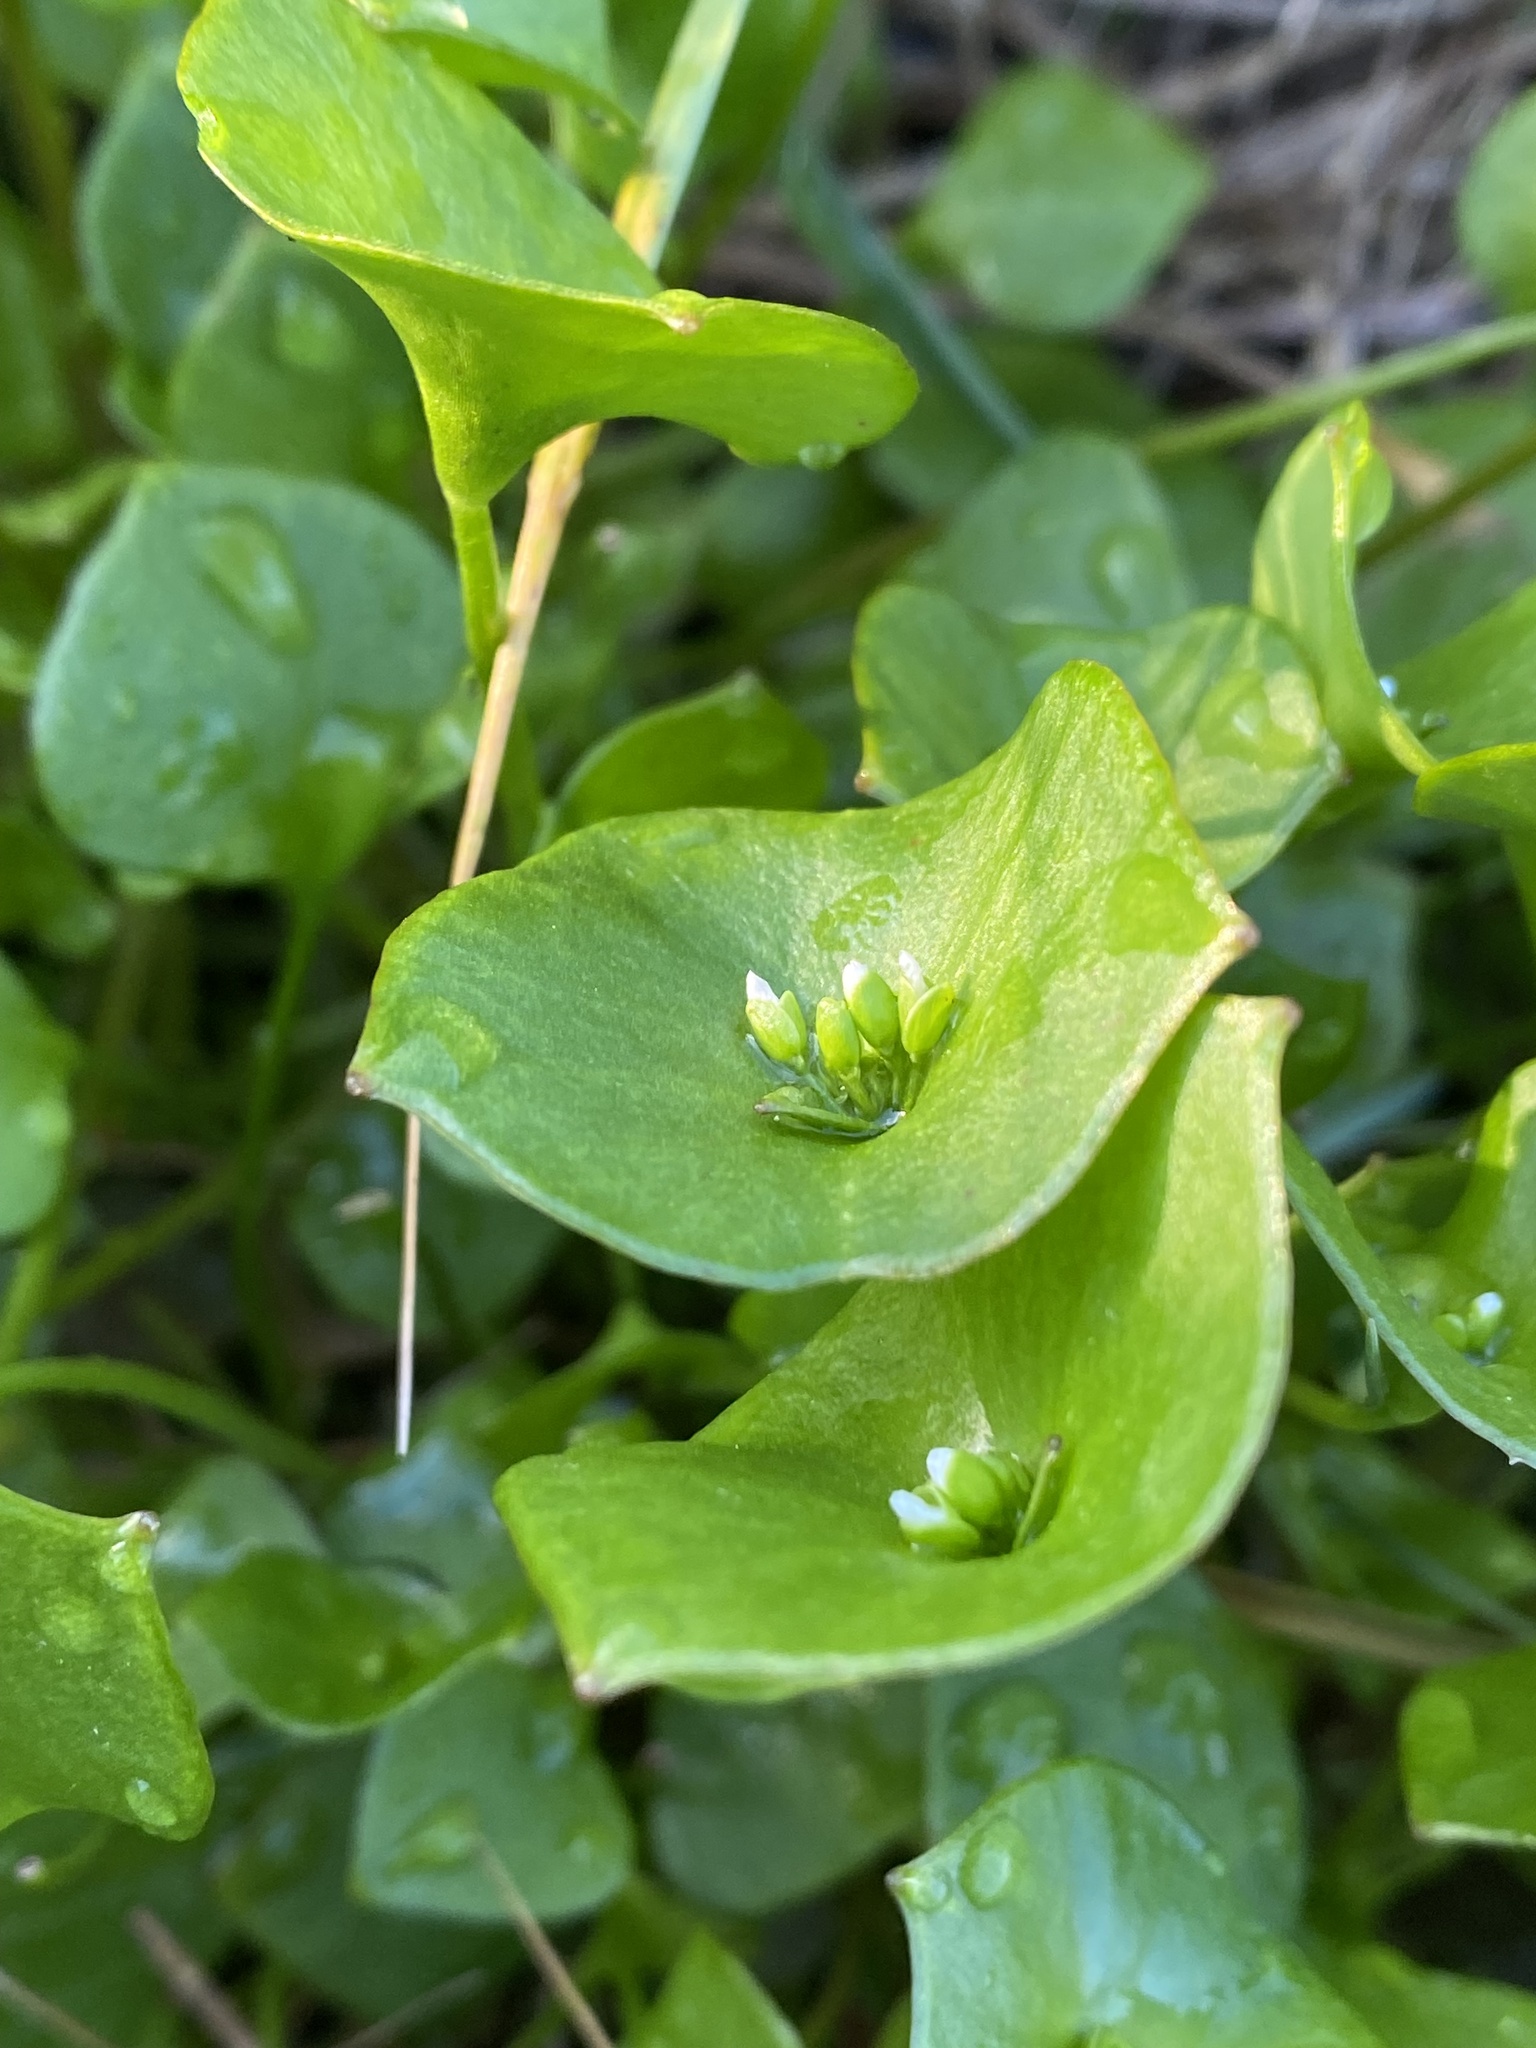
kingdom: Plantae
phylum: Tracheophyta
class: Magnoliopsida
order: Caryophyllales
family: Montiaceae
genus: Claytonia
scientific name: Claytonia perfoliata
